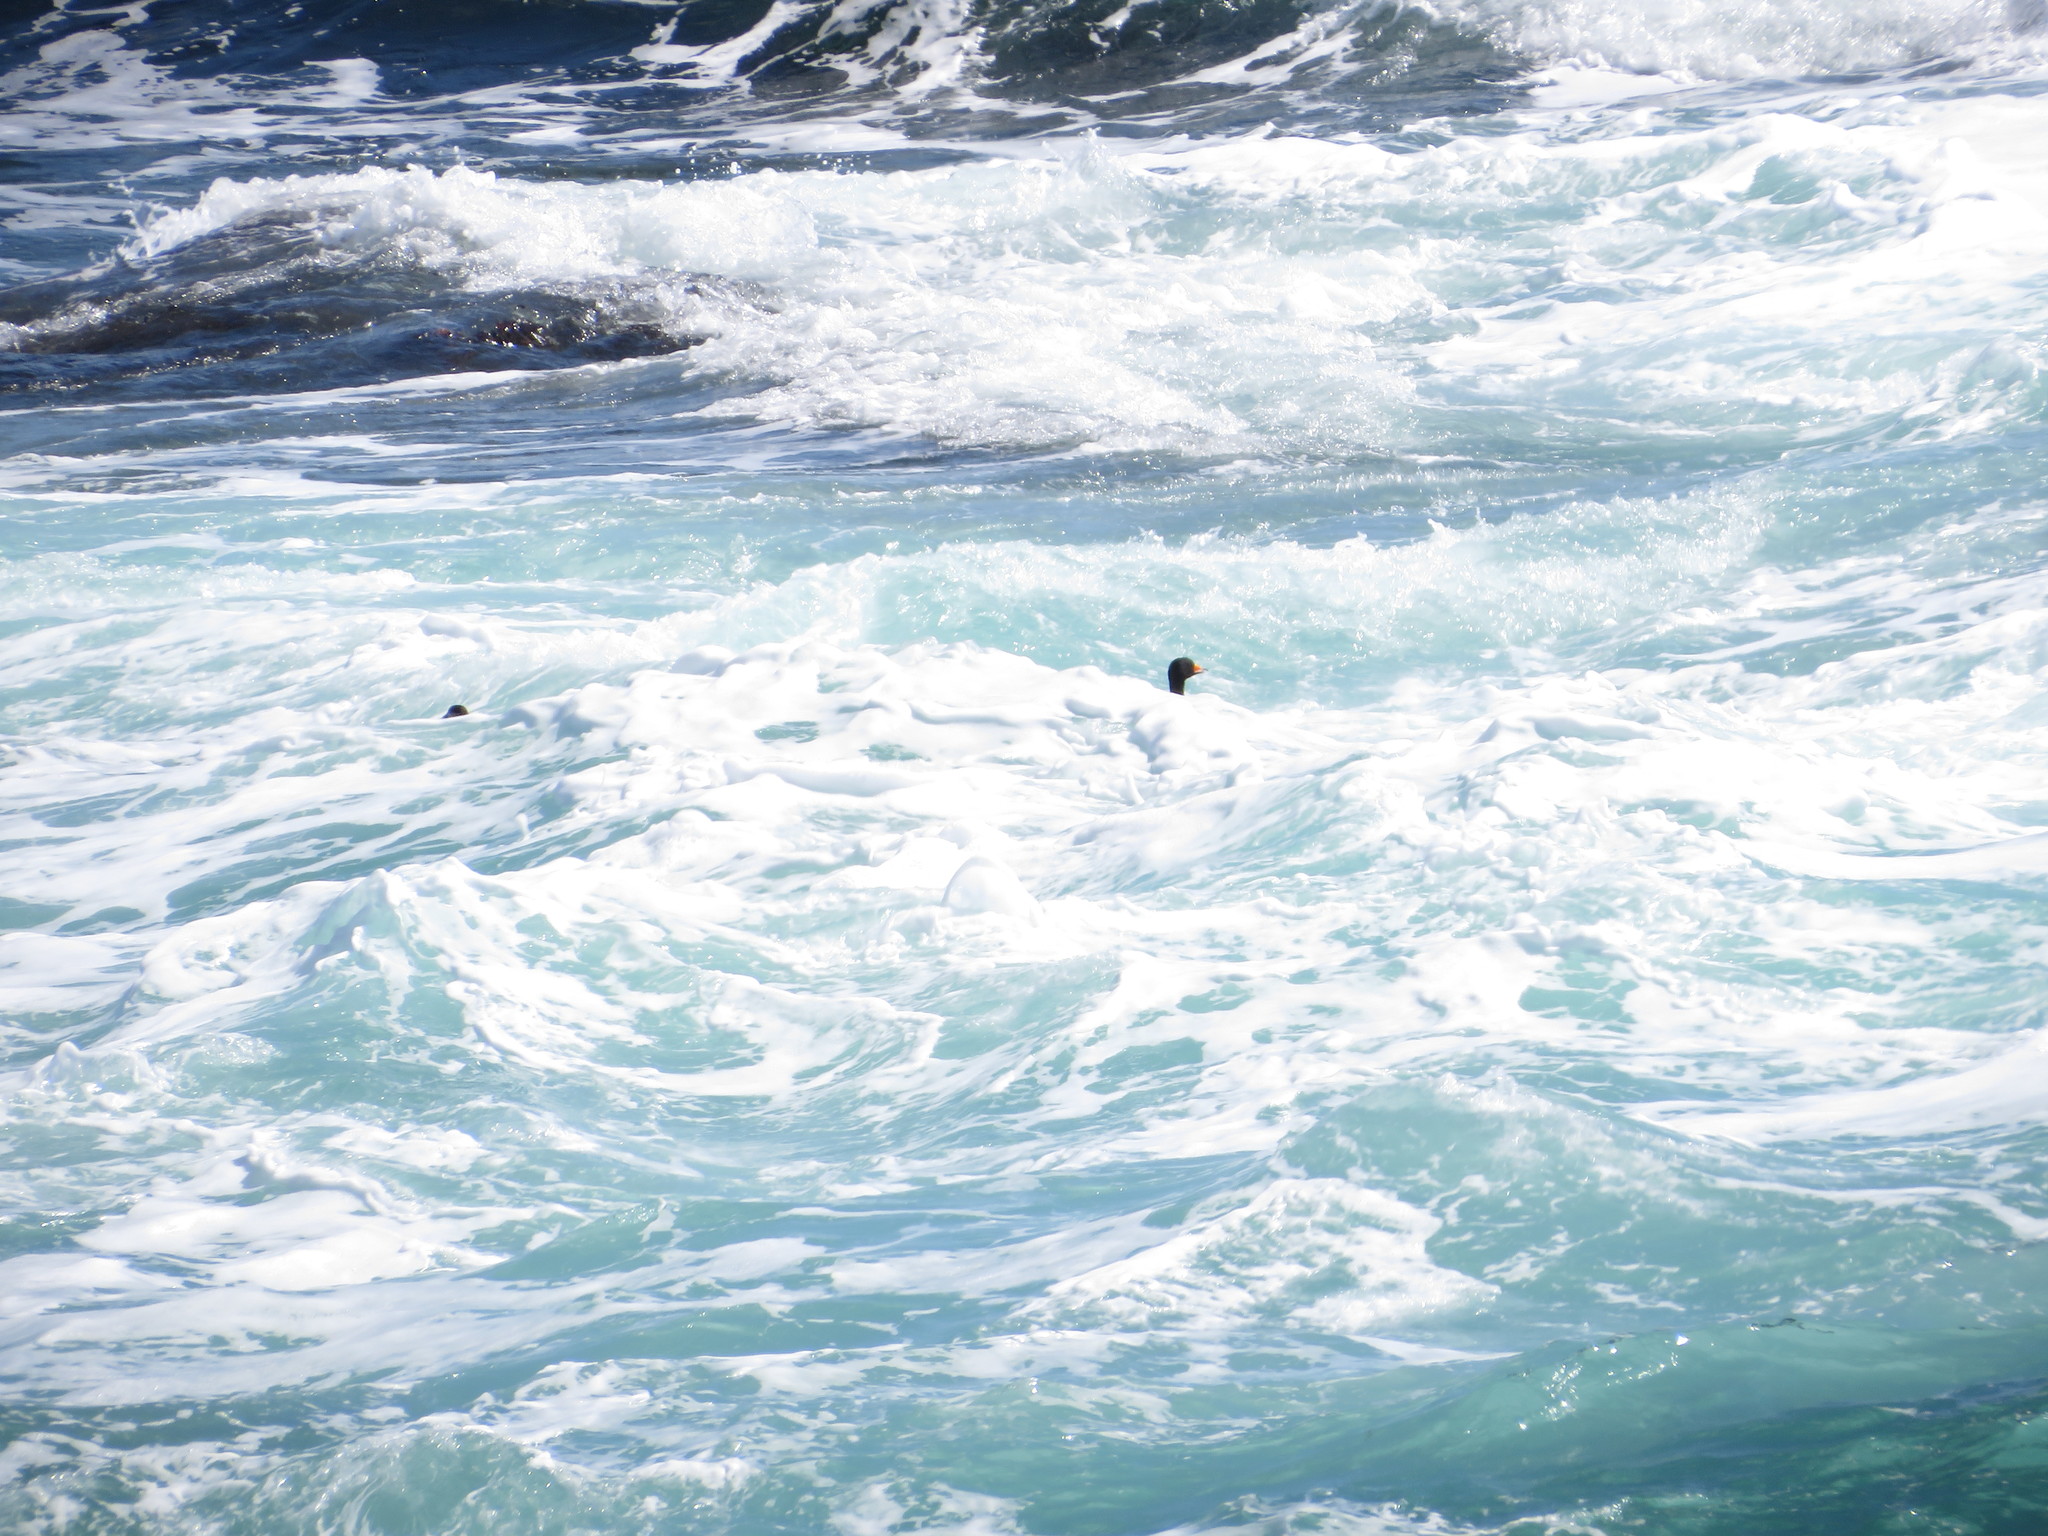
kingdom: Animalia
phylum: Chordata
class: Aves
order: Anseriformes
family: Anatidae
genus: Melanitta
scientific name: Melanitta americana
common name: Black scoter
